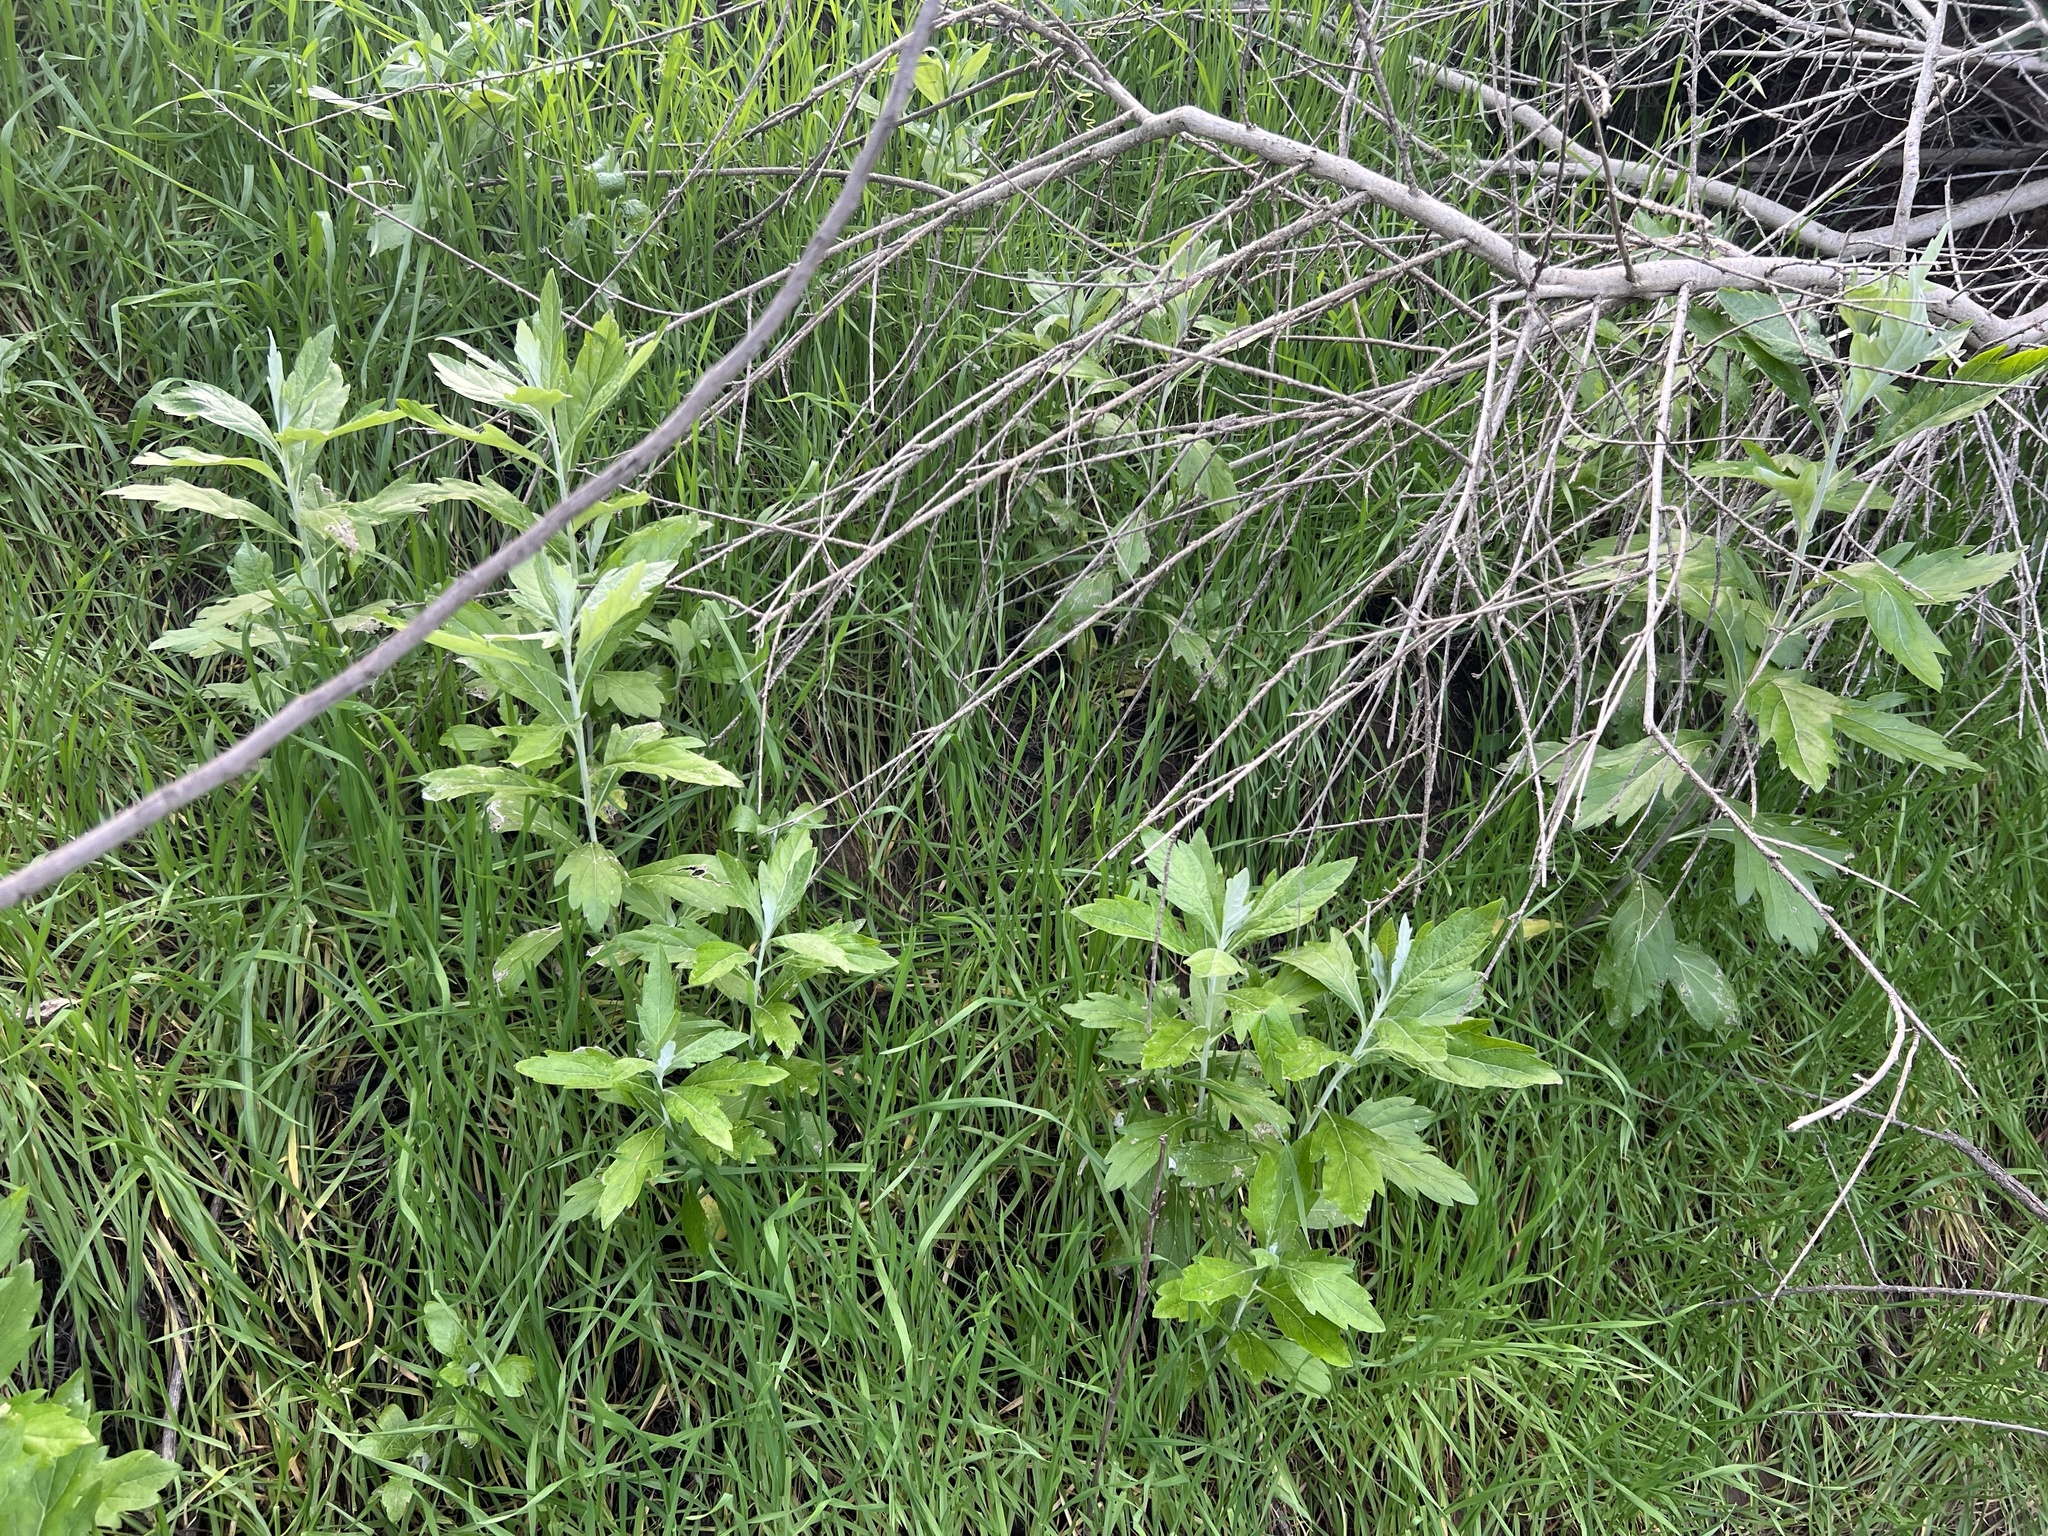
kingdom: Plantae
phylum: Tracheophyta
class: Magnoliopsida
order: Asterales
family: Asteraceae
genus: Artemisia
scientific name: Artemisia douglasiana
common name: Northwest mugwort
